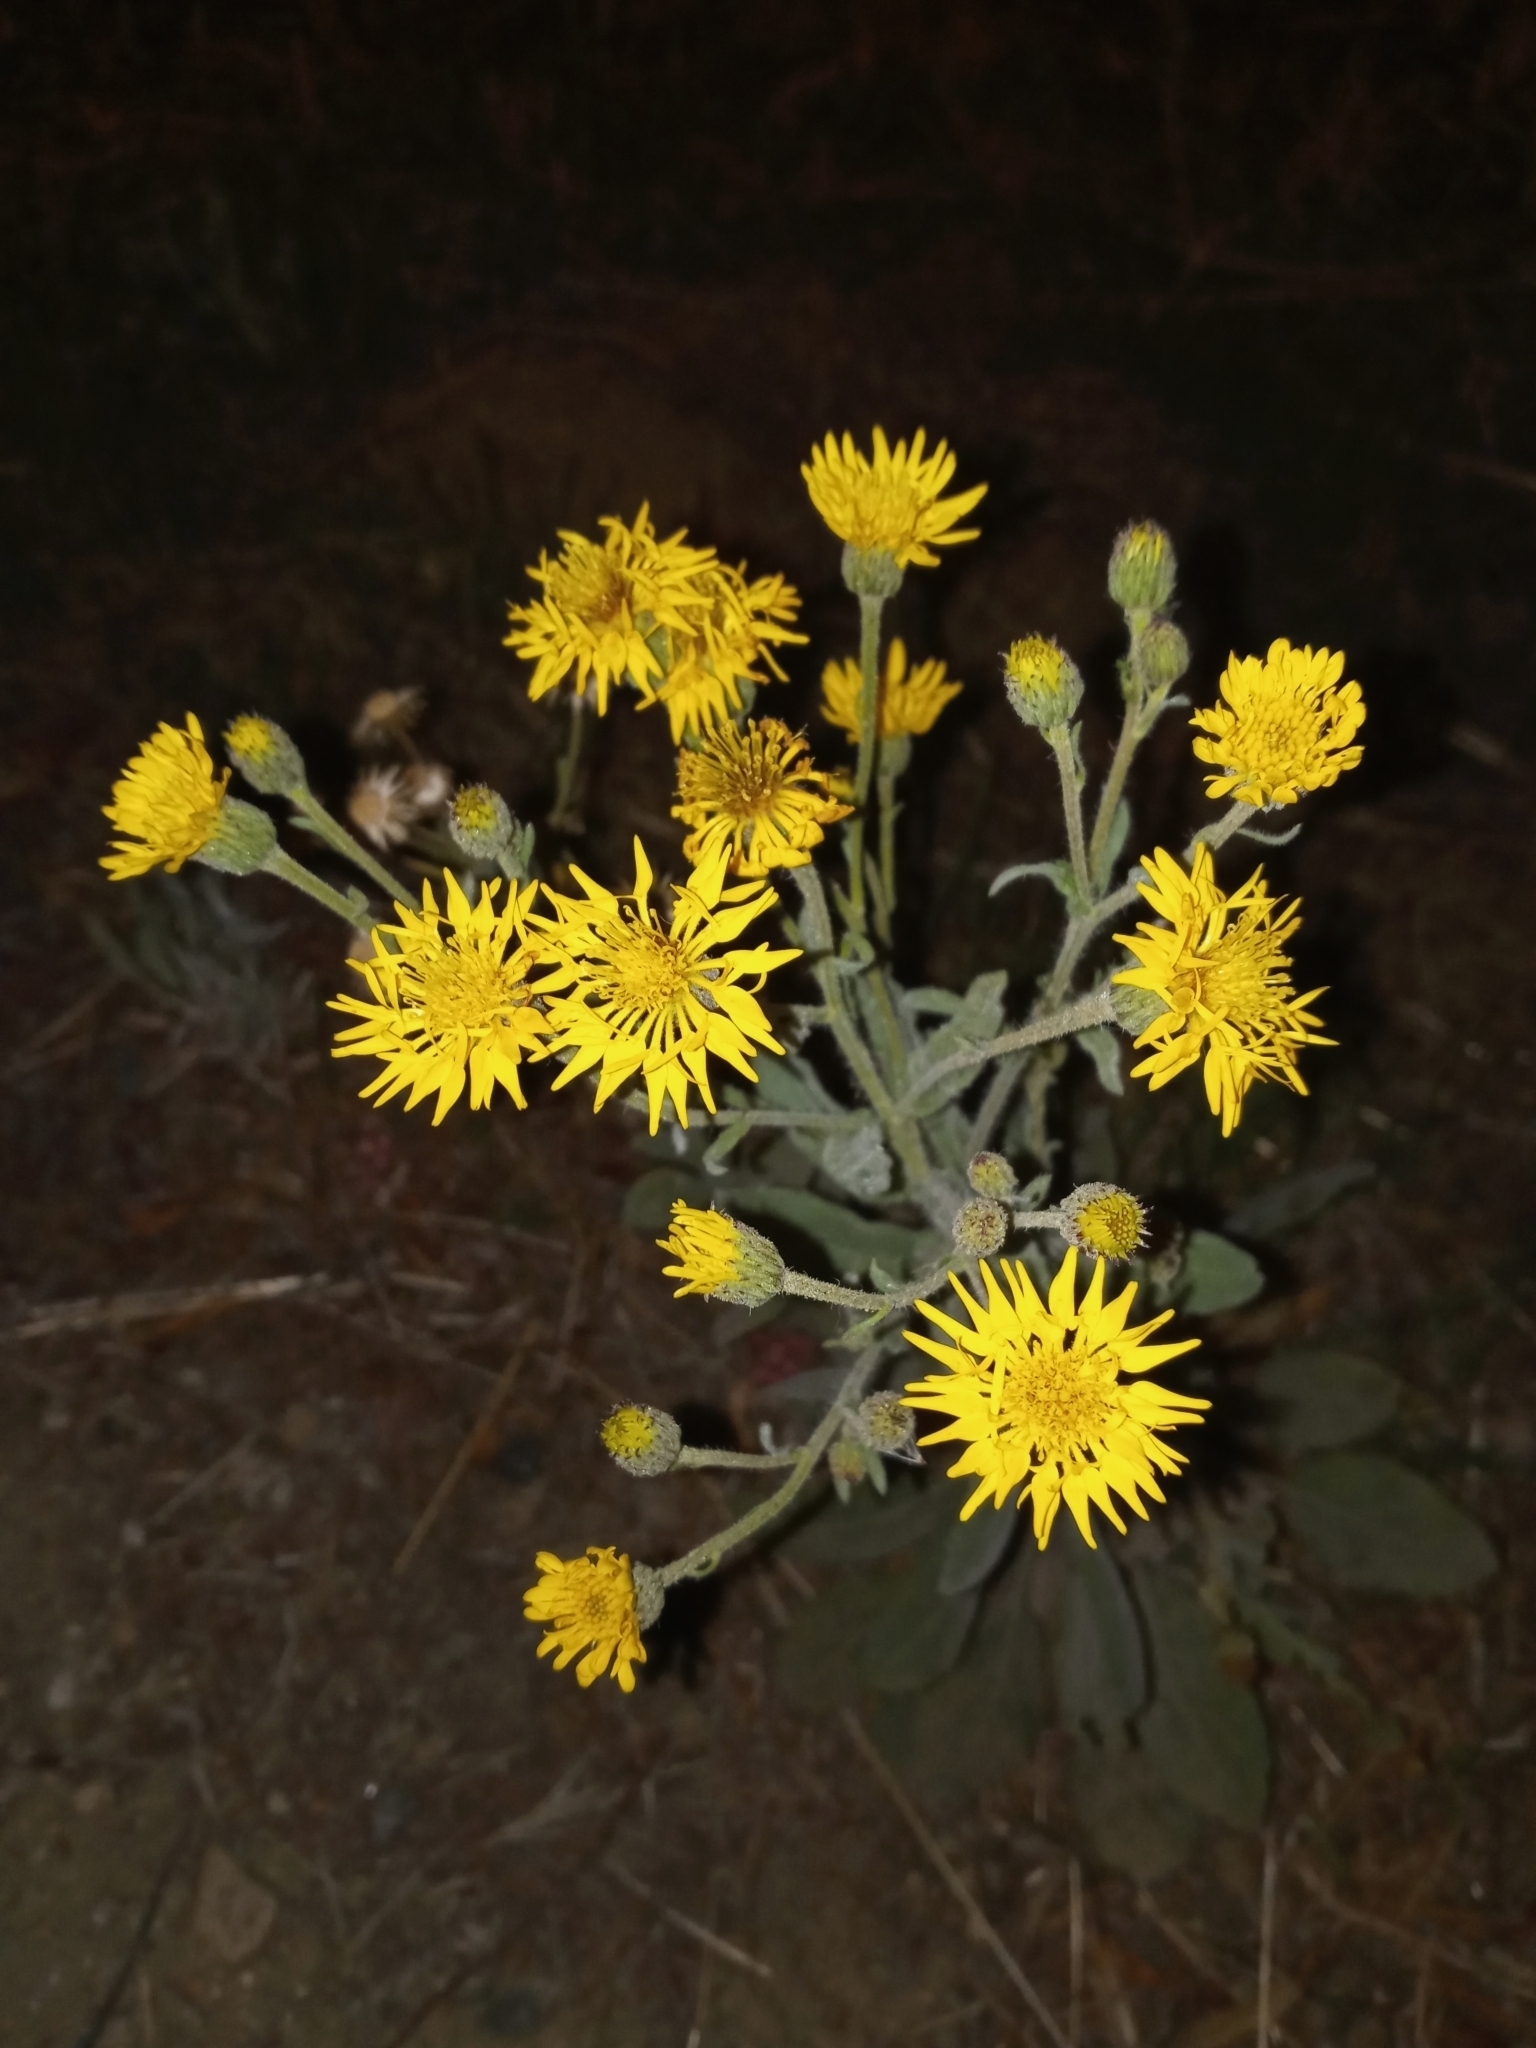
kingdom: Plantae
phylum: Tracheophyta
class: Magnoliopsida
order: Asterales
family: Asteraceae
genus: Heterotheca
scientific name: Heterotheca grandiflora
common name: Telegraphweed
